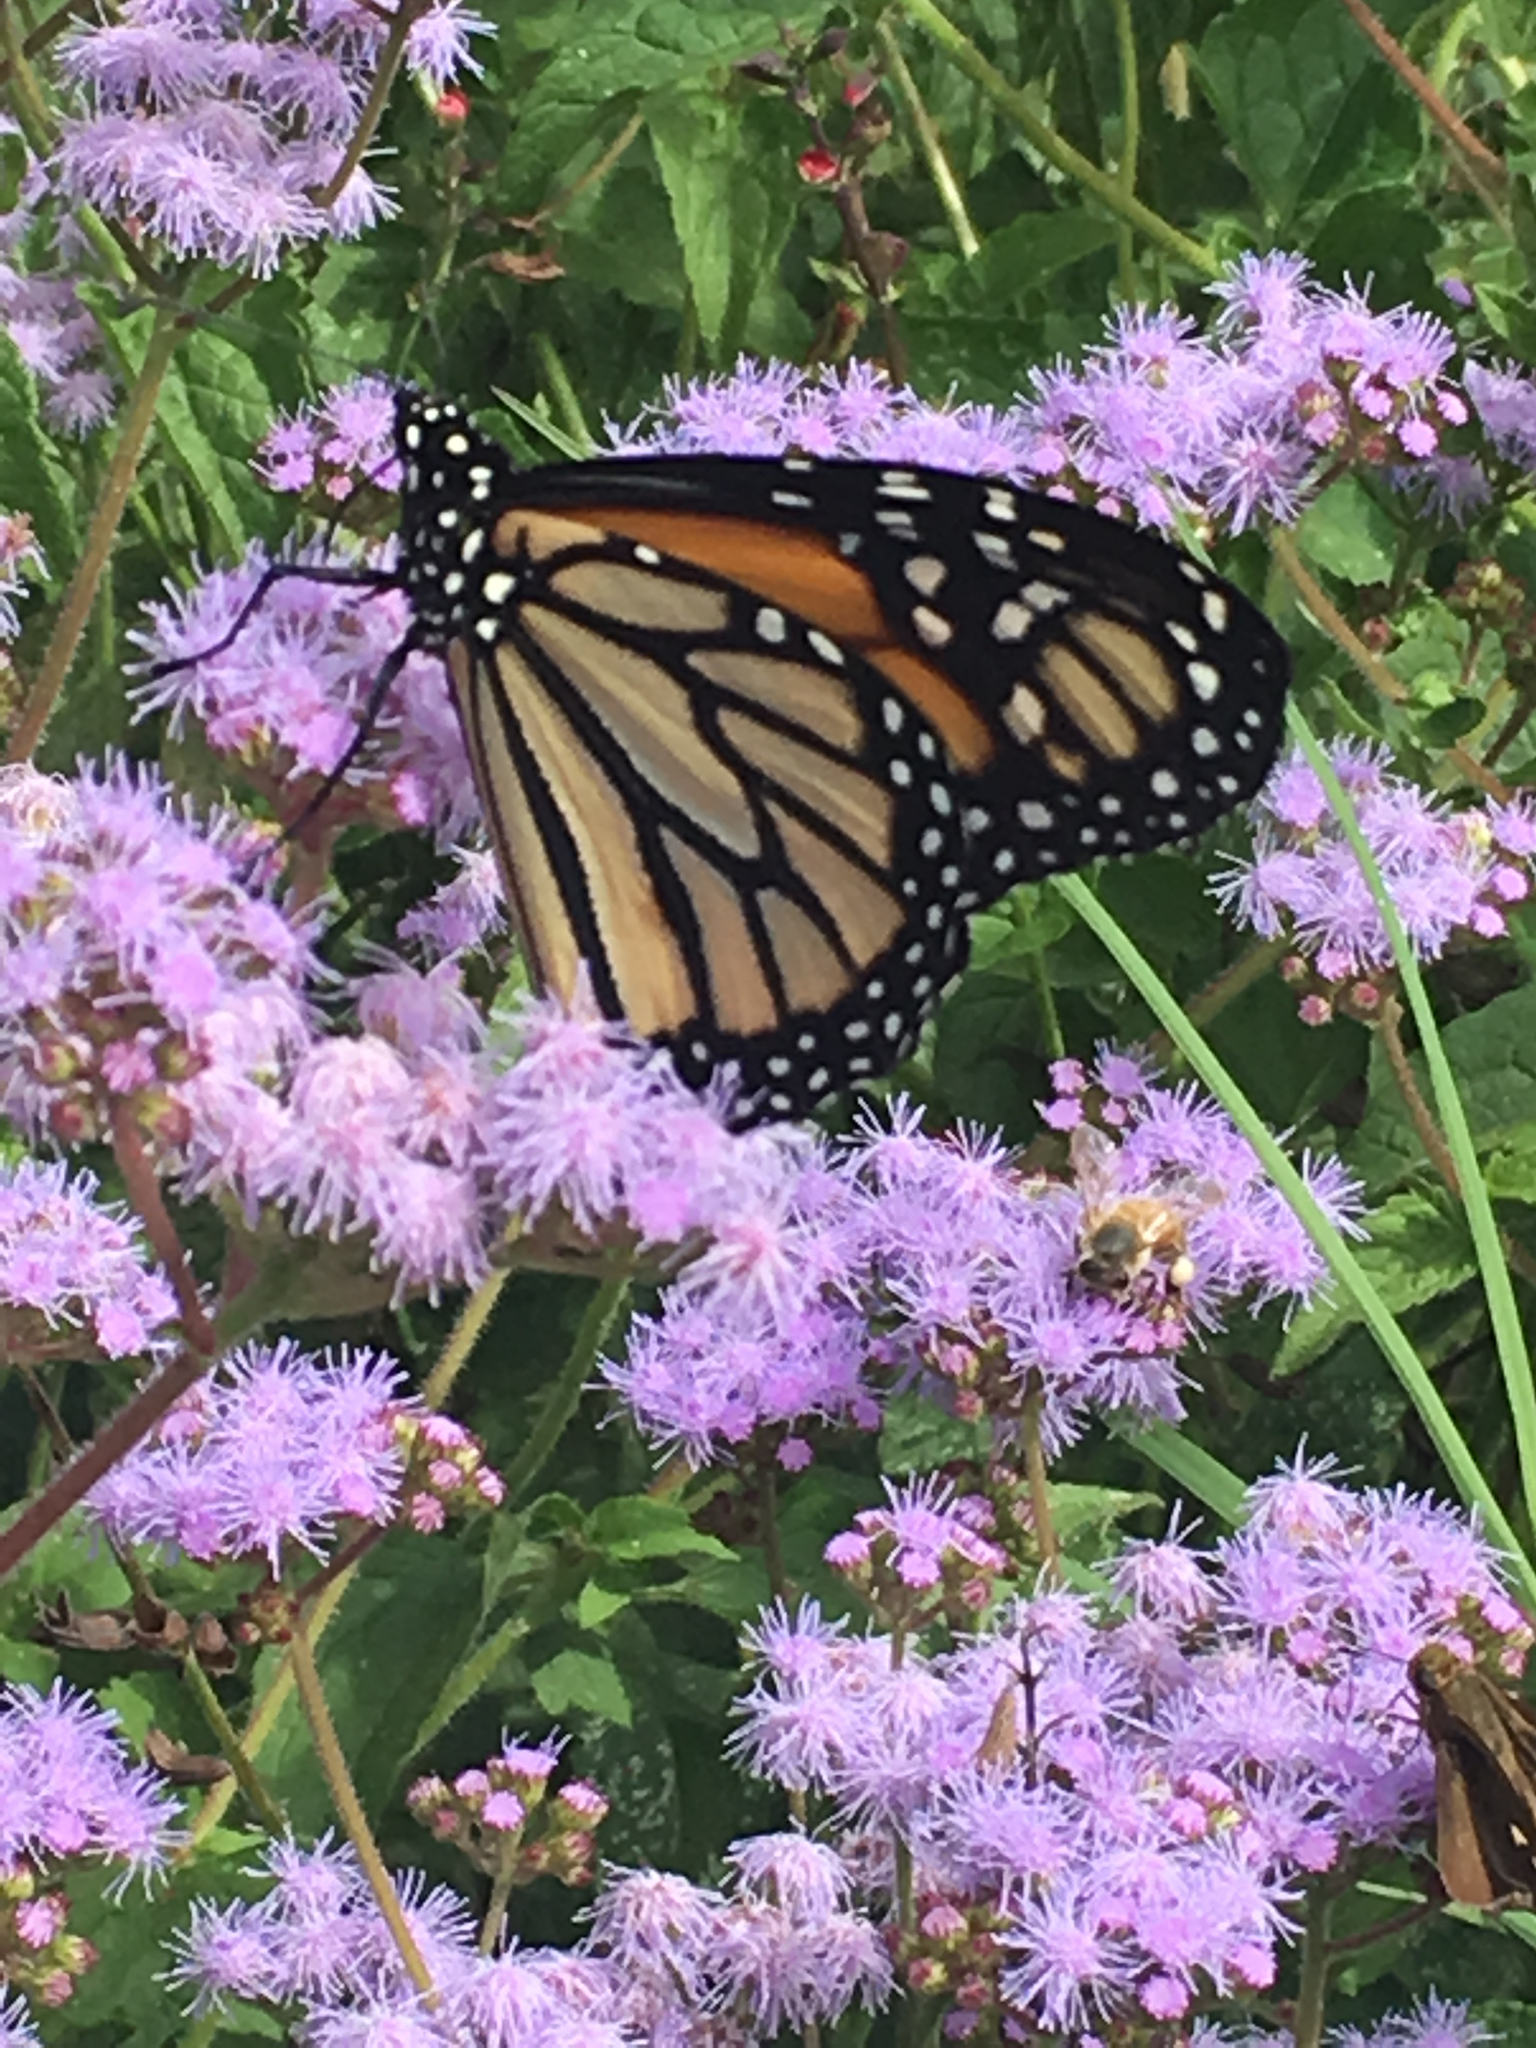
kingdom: Animalia
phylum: Arthropoda
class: Insecta
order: Lepidoptera
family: Nymphalidae
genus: Danaus
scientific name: Danaus plexippus
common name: Monarch
